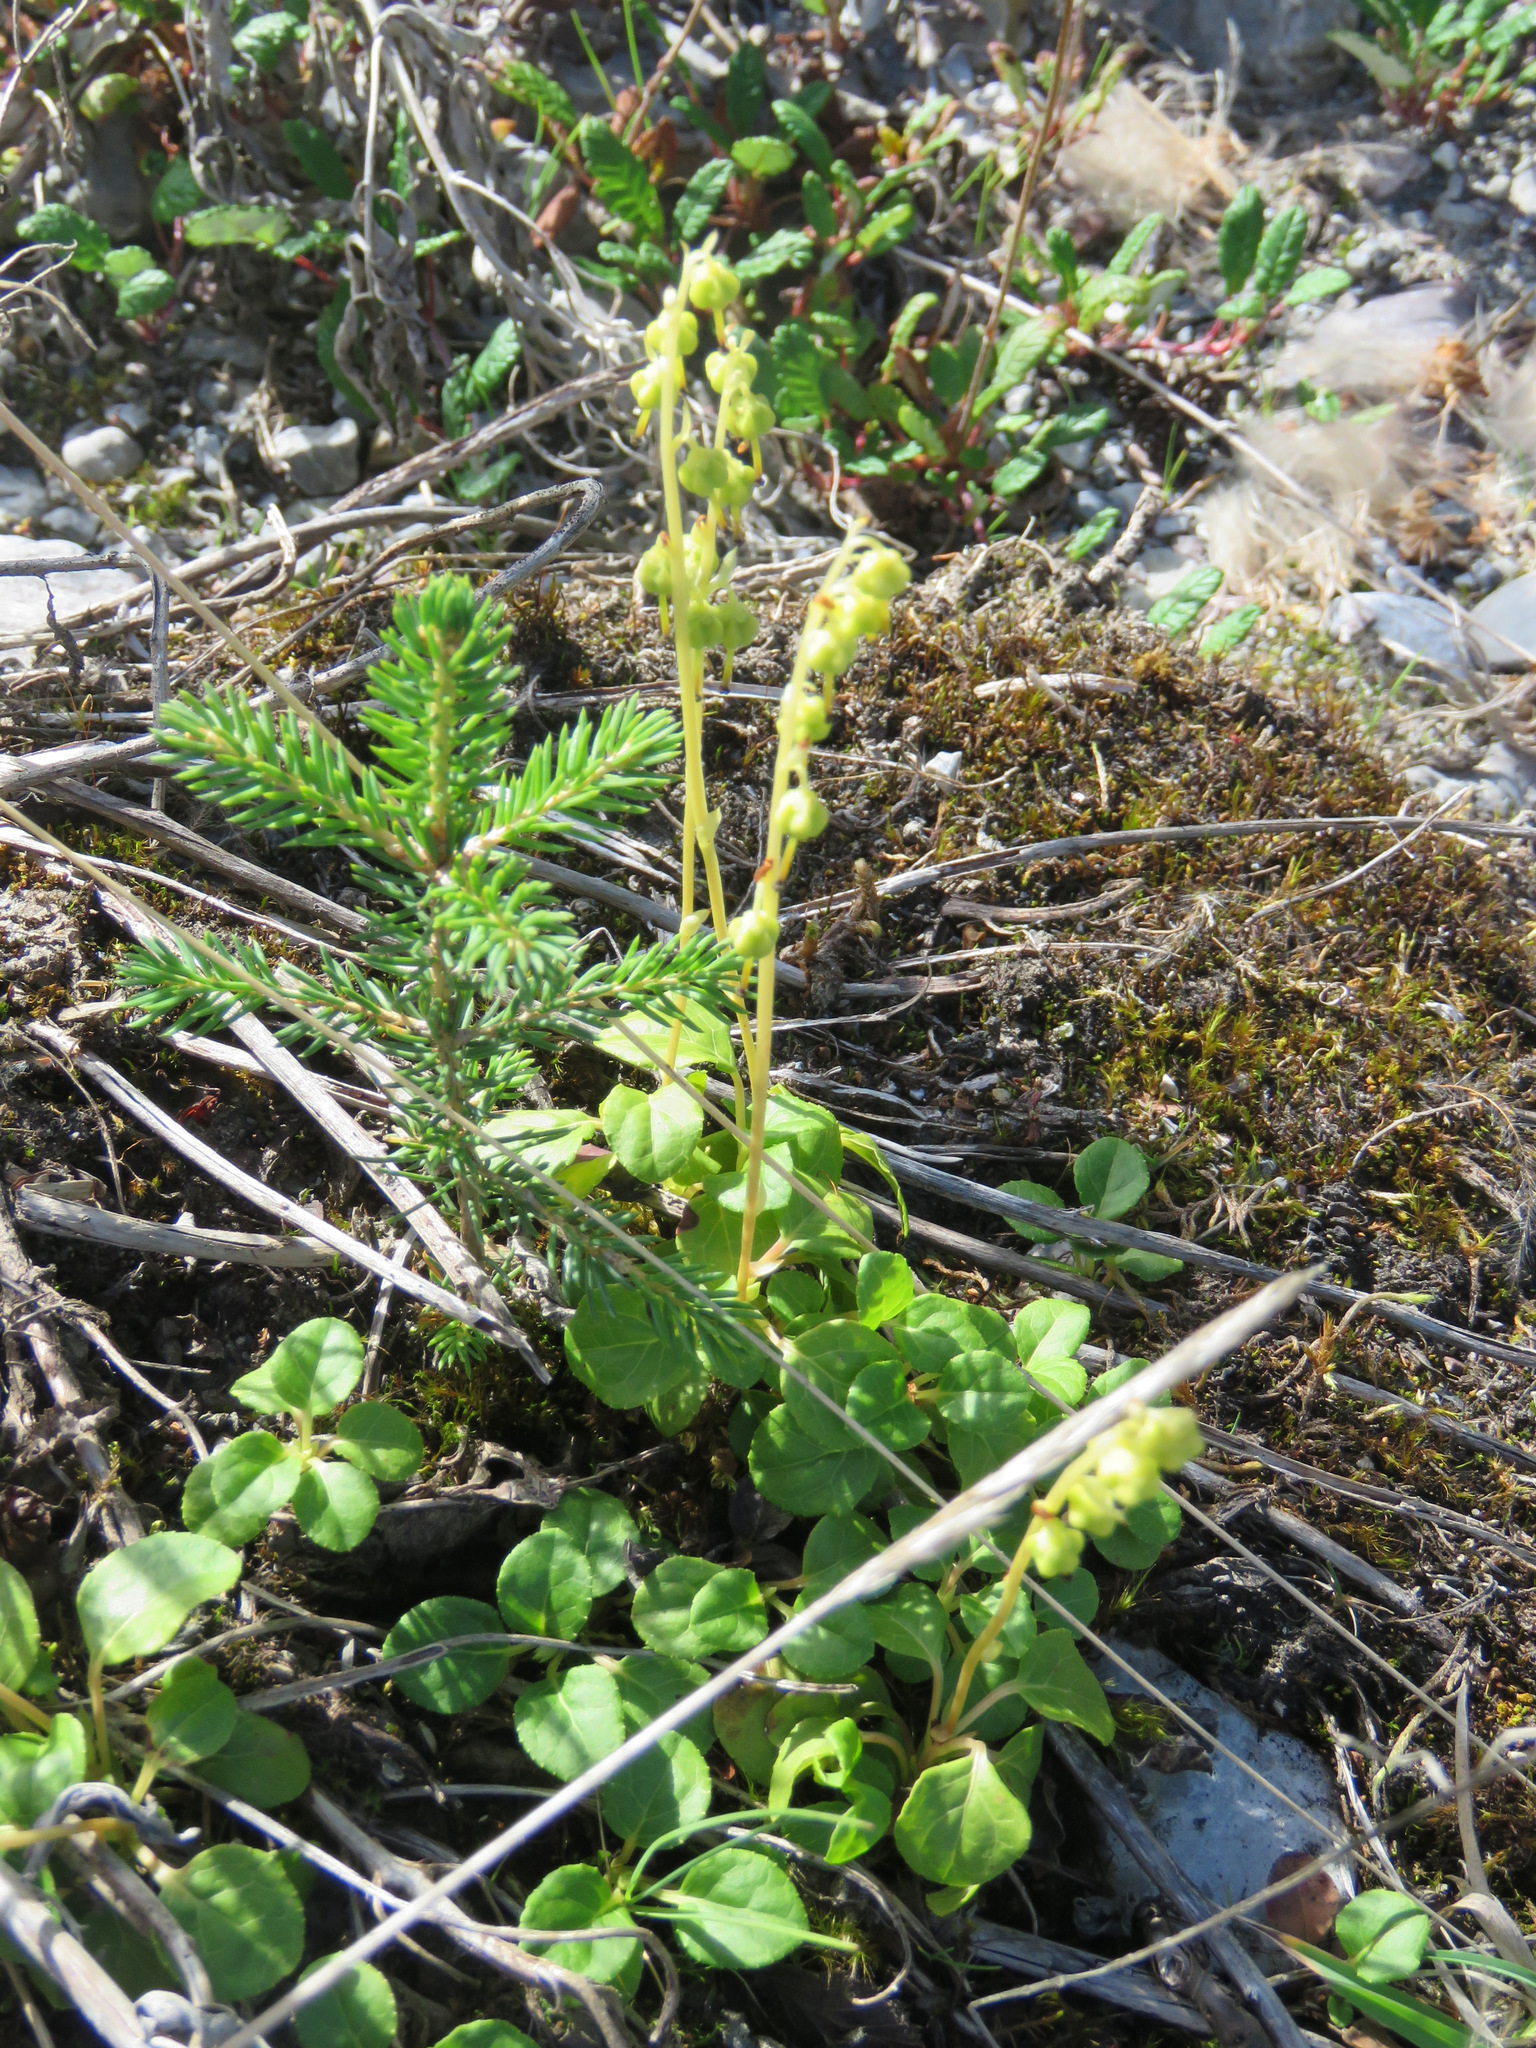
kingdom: Plantae
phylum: Tracheophyta
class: Magnoliopsida
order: Ericales
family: Ericaceae
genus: Orthilia
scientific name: Orthilia secunda
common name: One-sided orthilia
